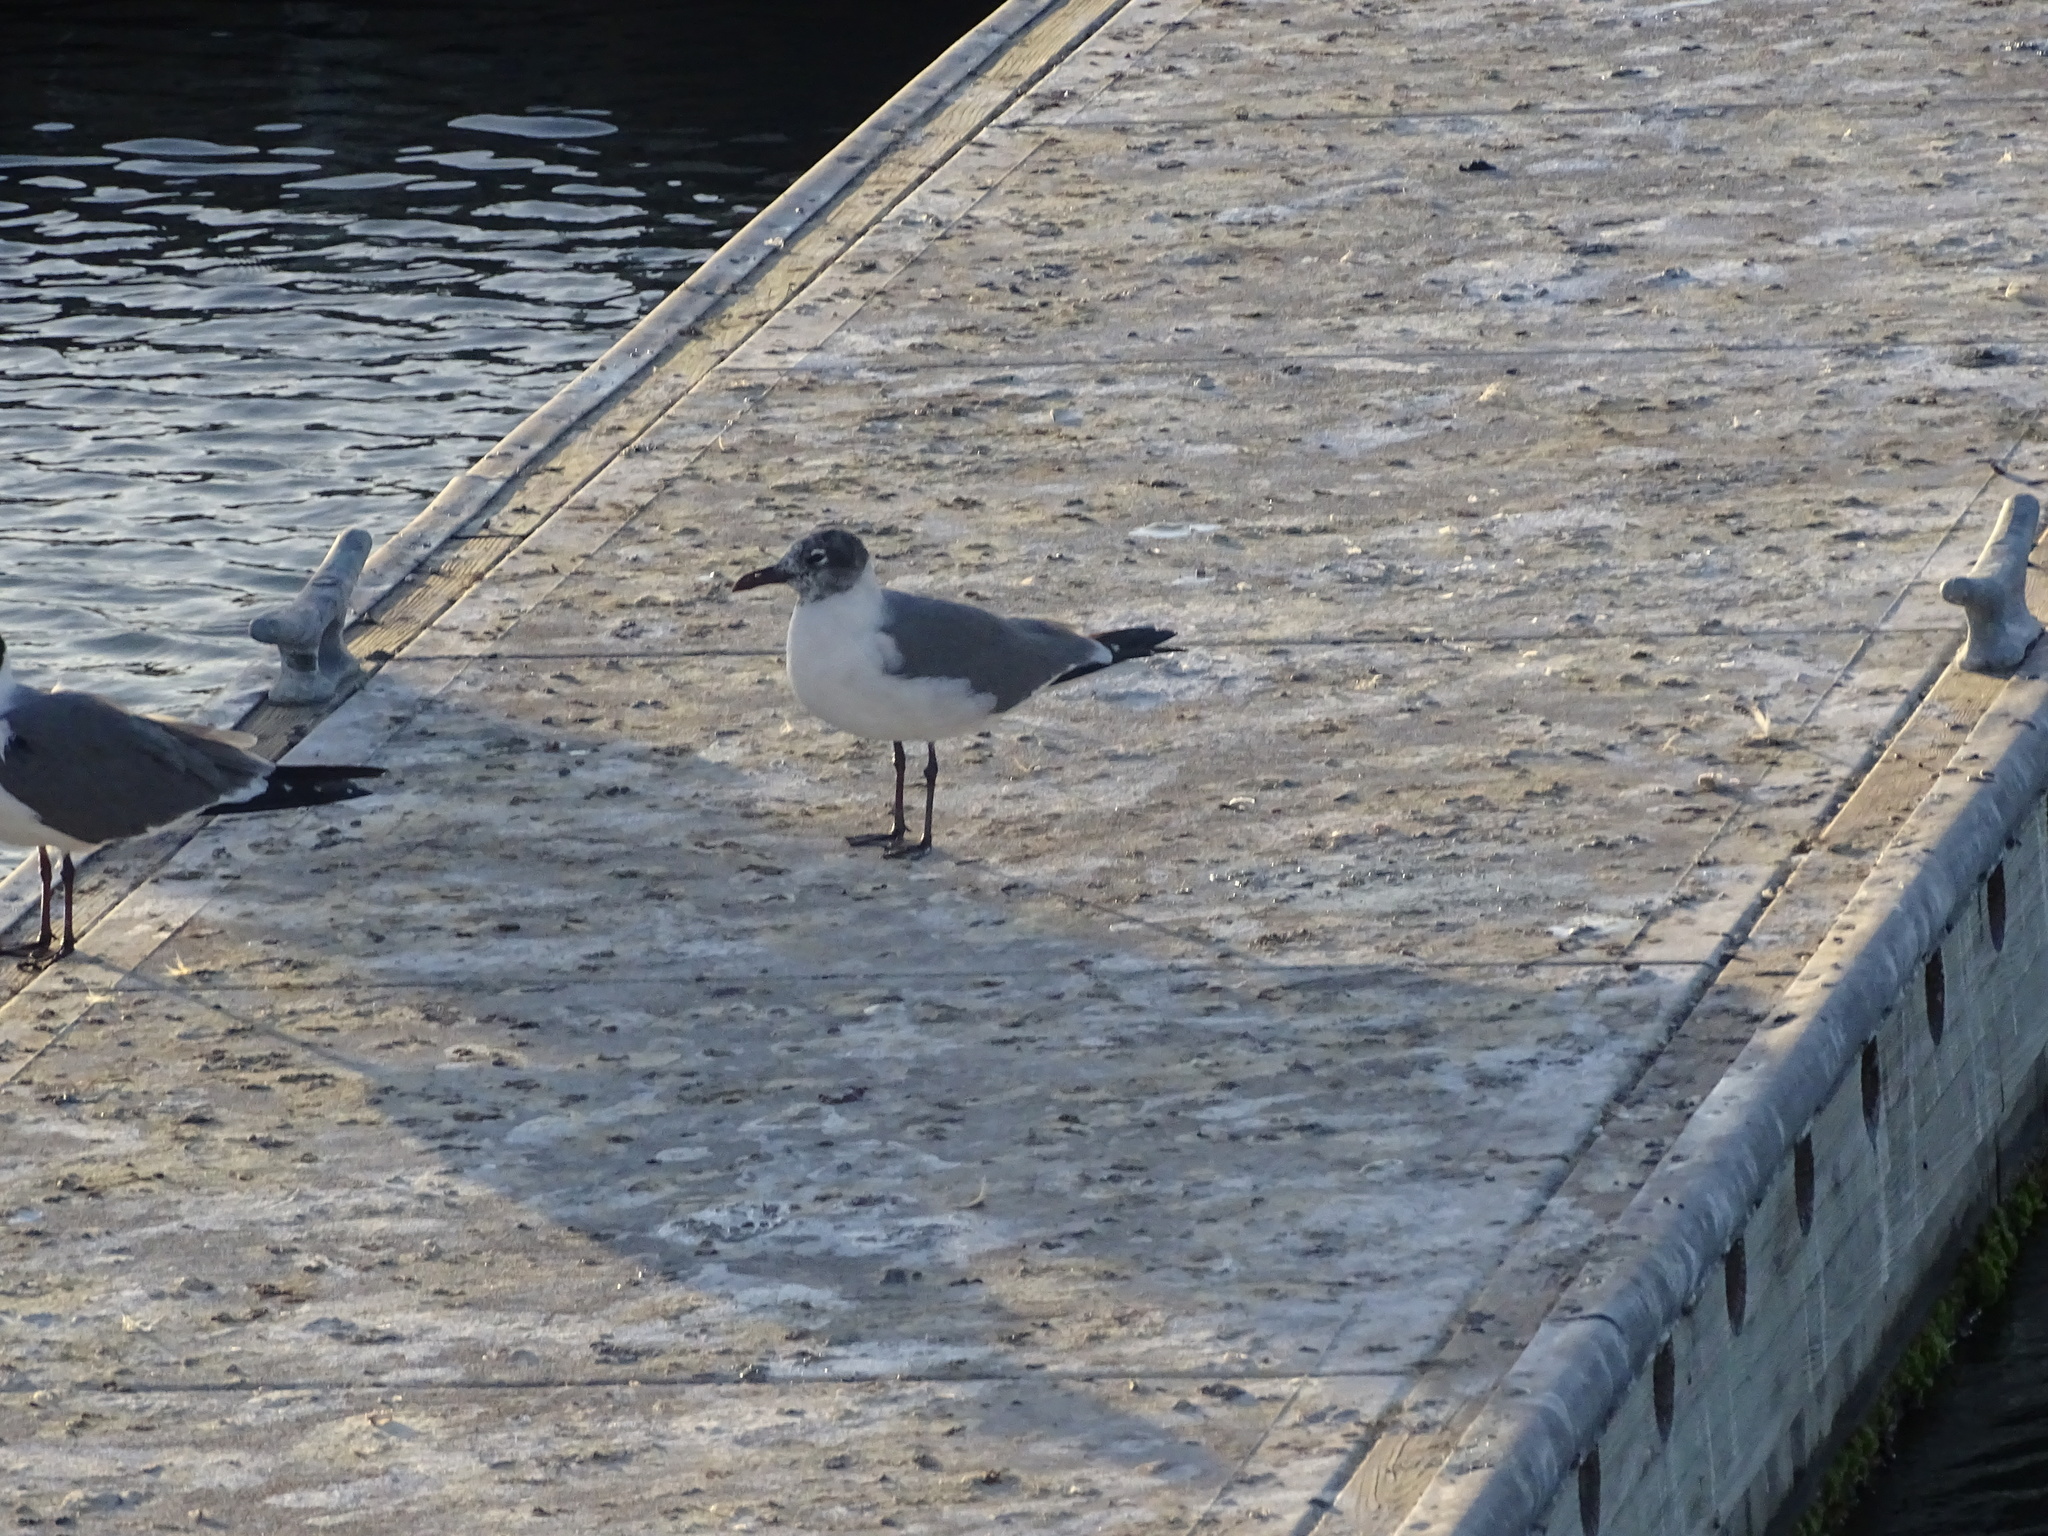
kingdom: Animalia
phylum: Chordata
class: Aves
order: Charadriiformes
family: Laridae
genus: Leucophaeus
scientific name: Leucophaeus atricilla
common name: Laughing gull
